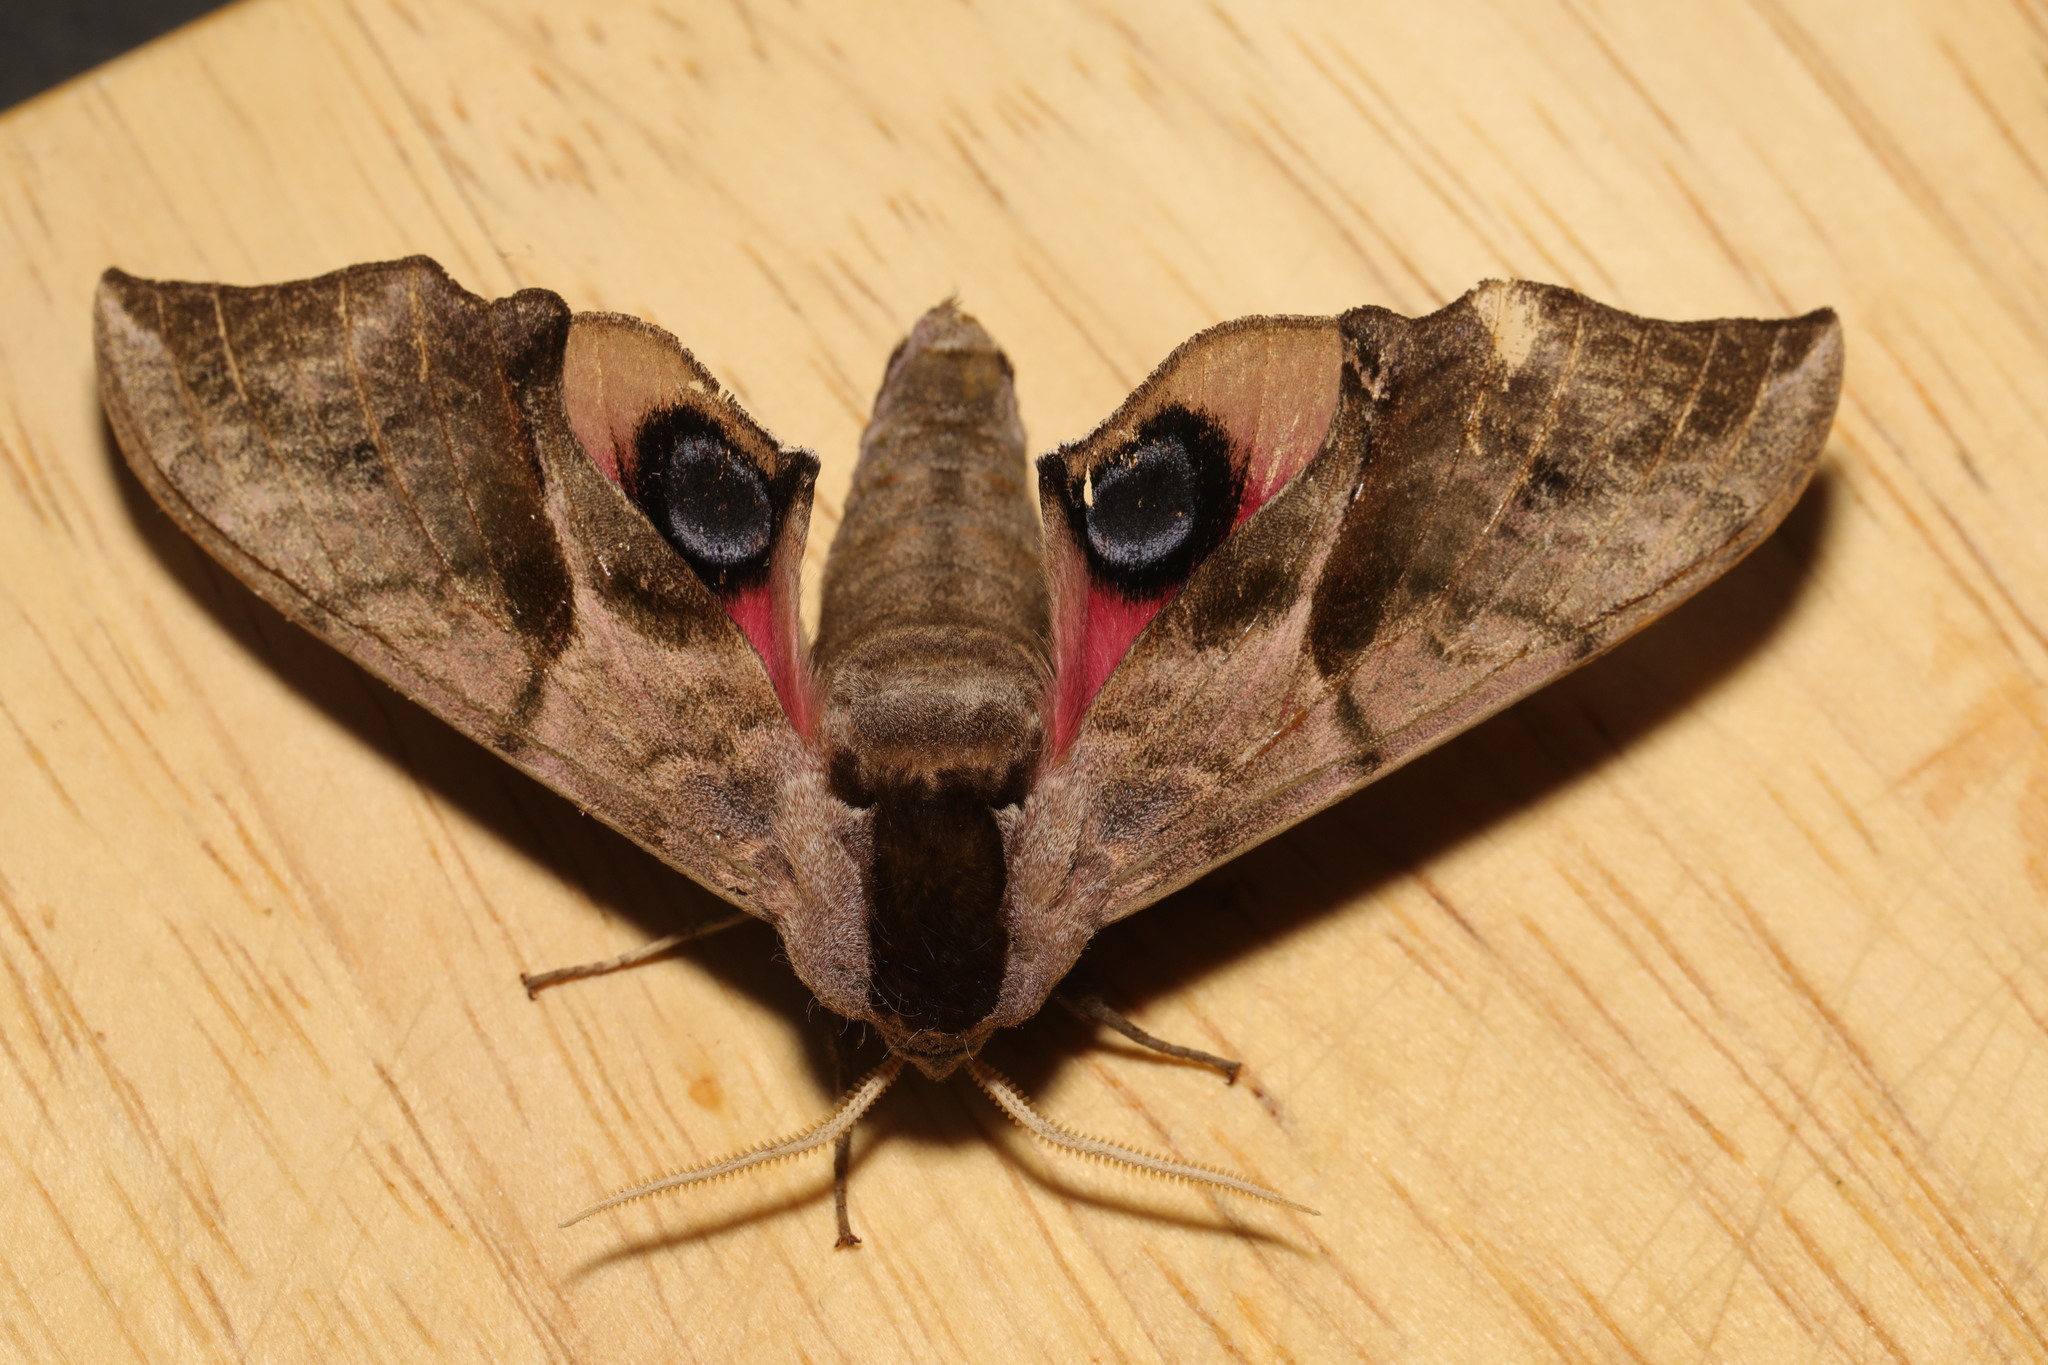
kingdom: Animalia
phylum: Arthropoda
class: Insecta
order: Lepidoptera
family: Sphingidae
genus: Smerinthus
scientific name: Smerinthus ocellata
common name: Eyed hawk-moth
